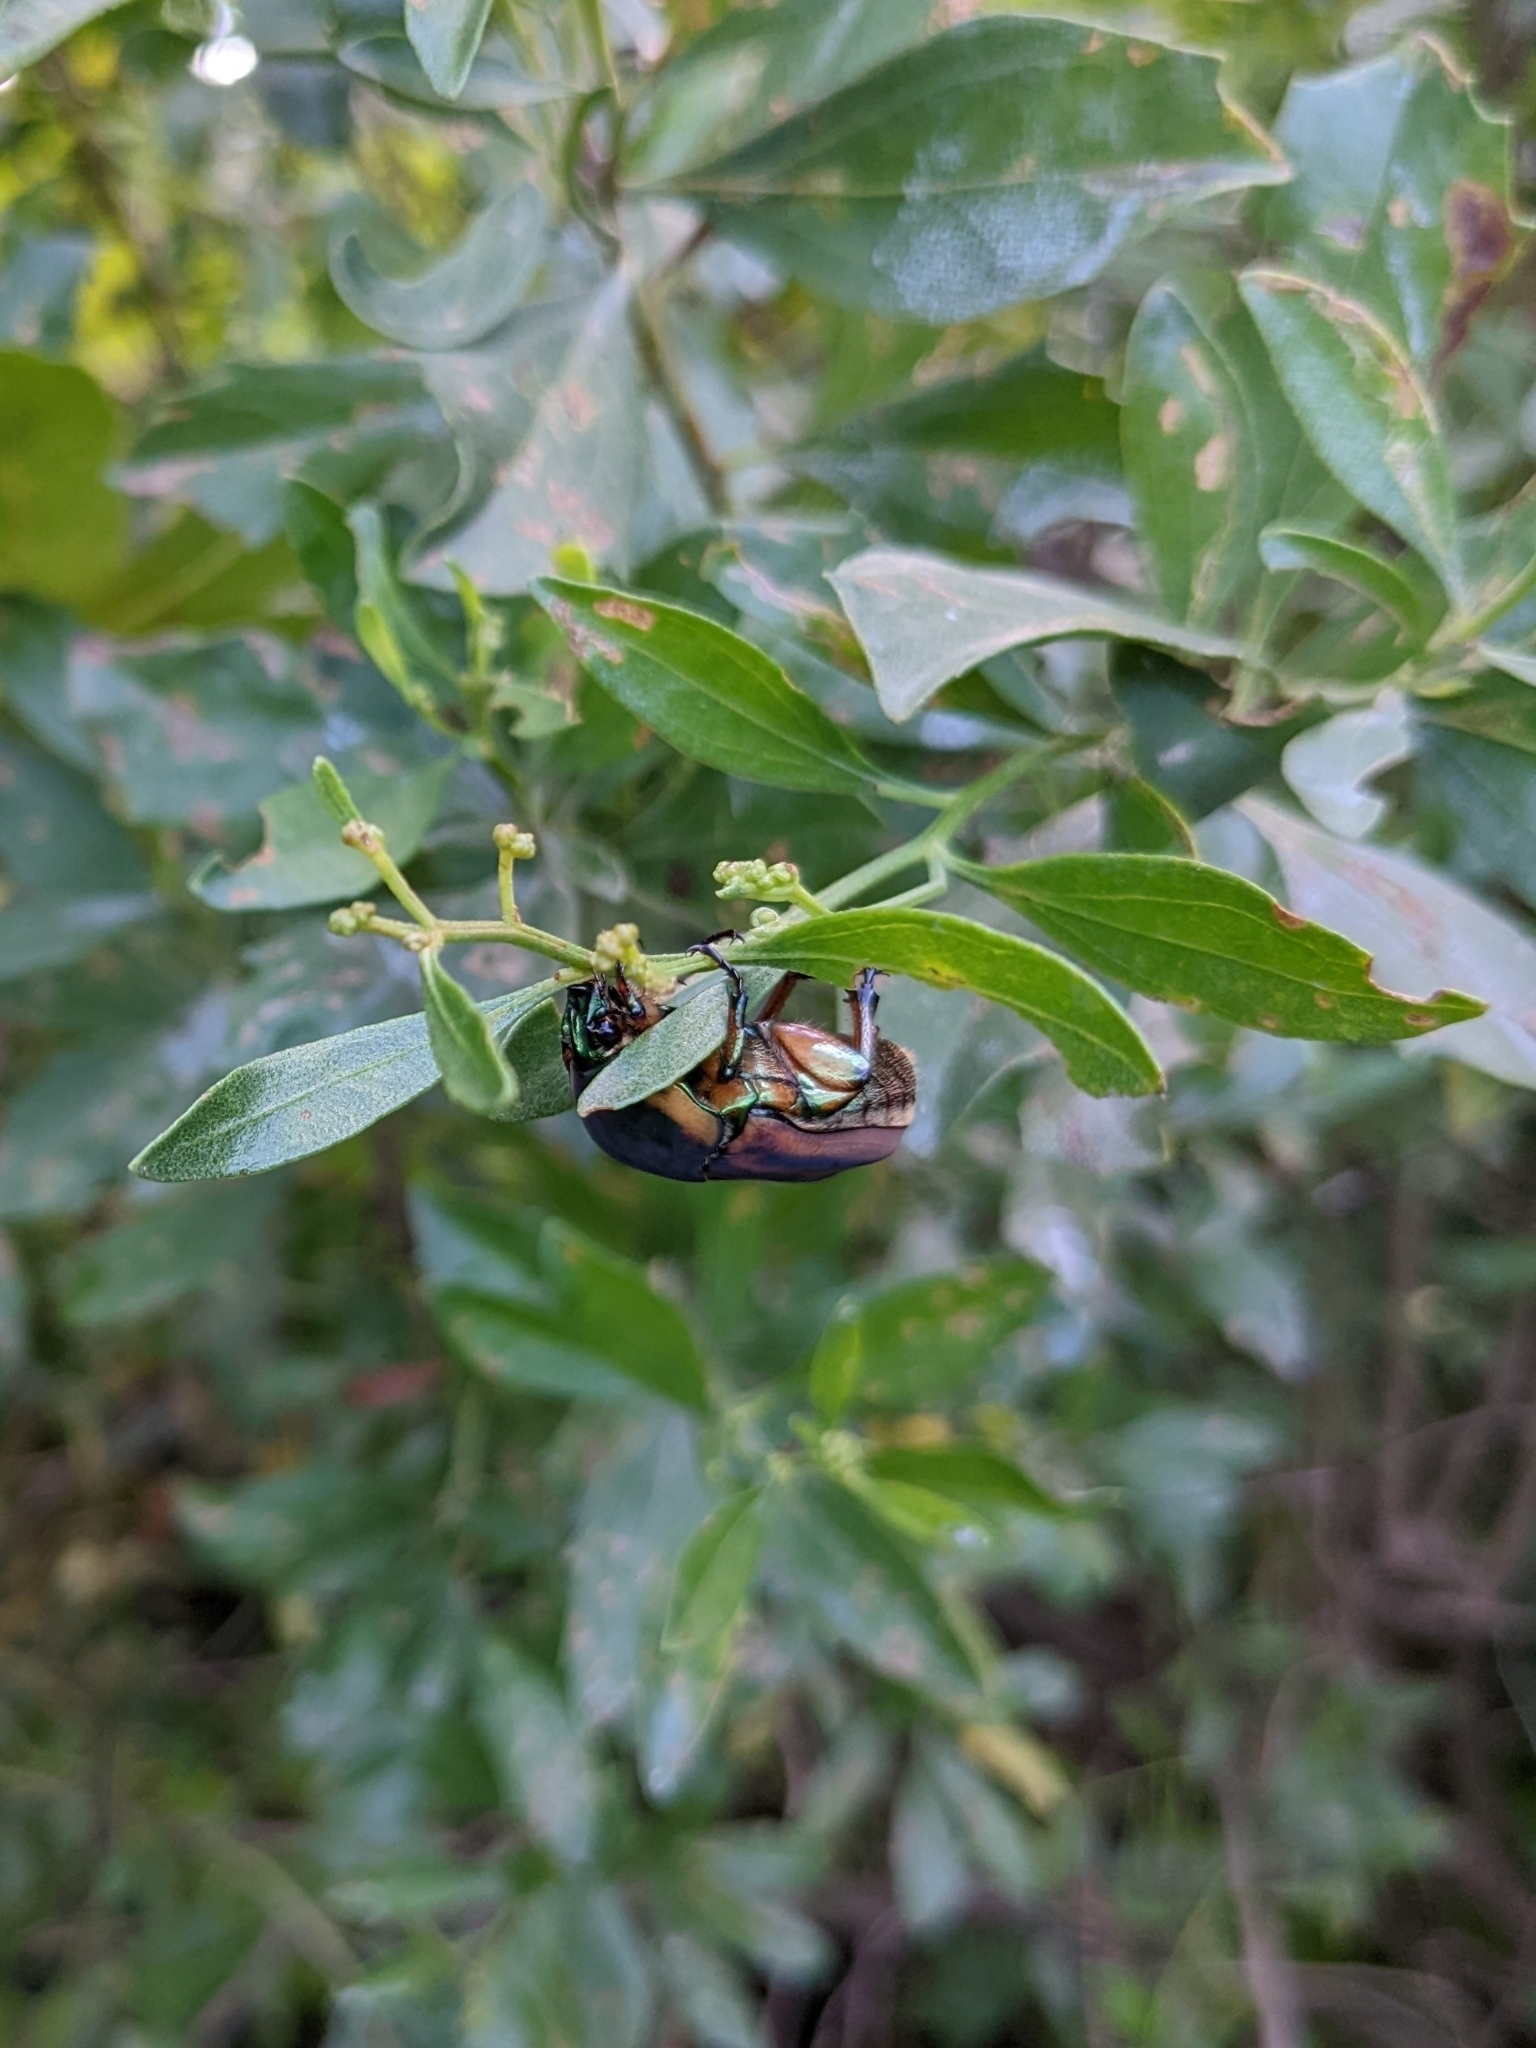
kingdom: Animalia
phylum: Arthropoda
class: Insecta
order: Coleoptera
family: Scarabaeidae
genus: Cotinis
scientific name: Cotinis nitida
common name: Common green june beetle
